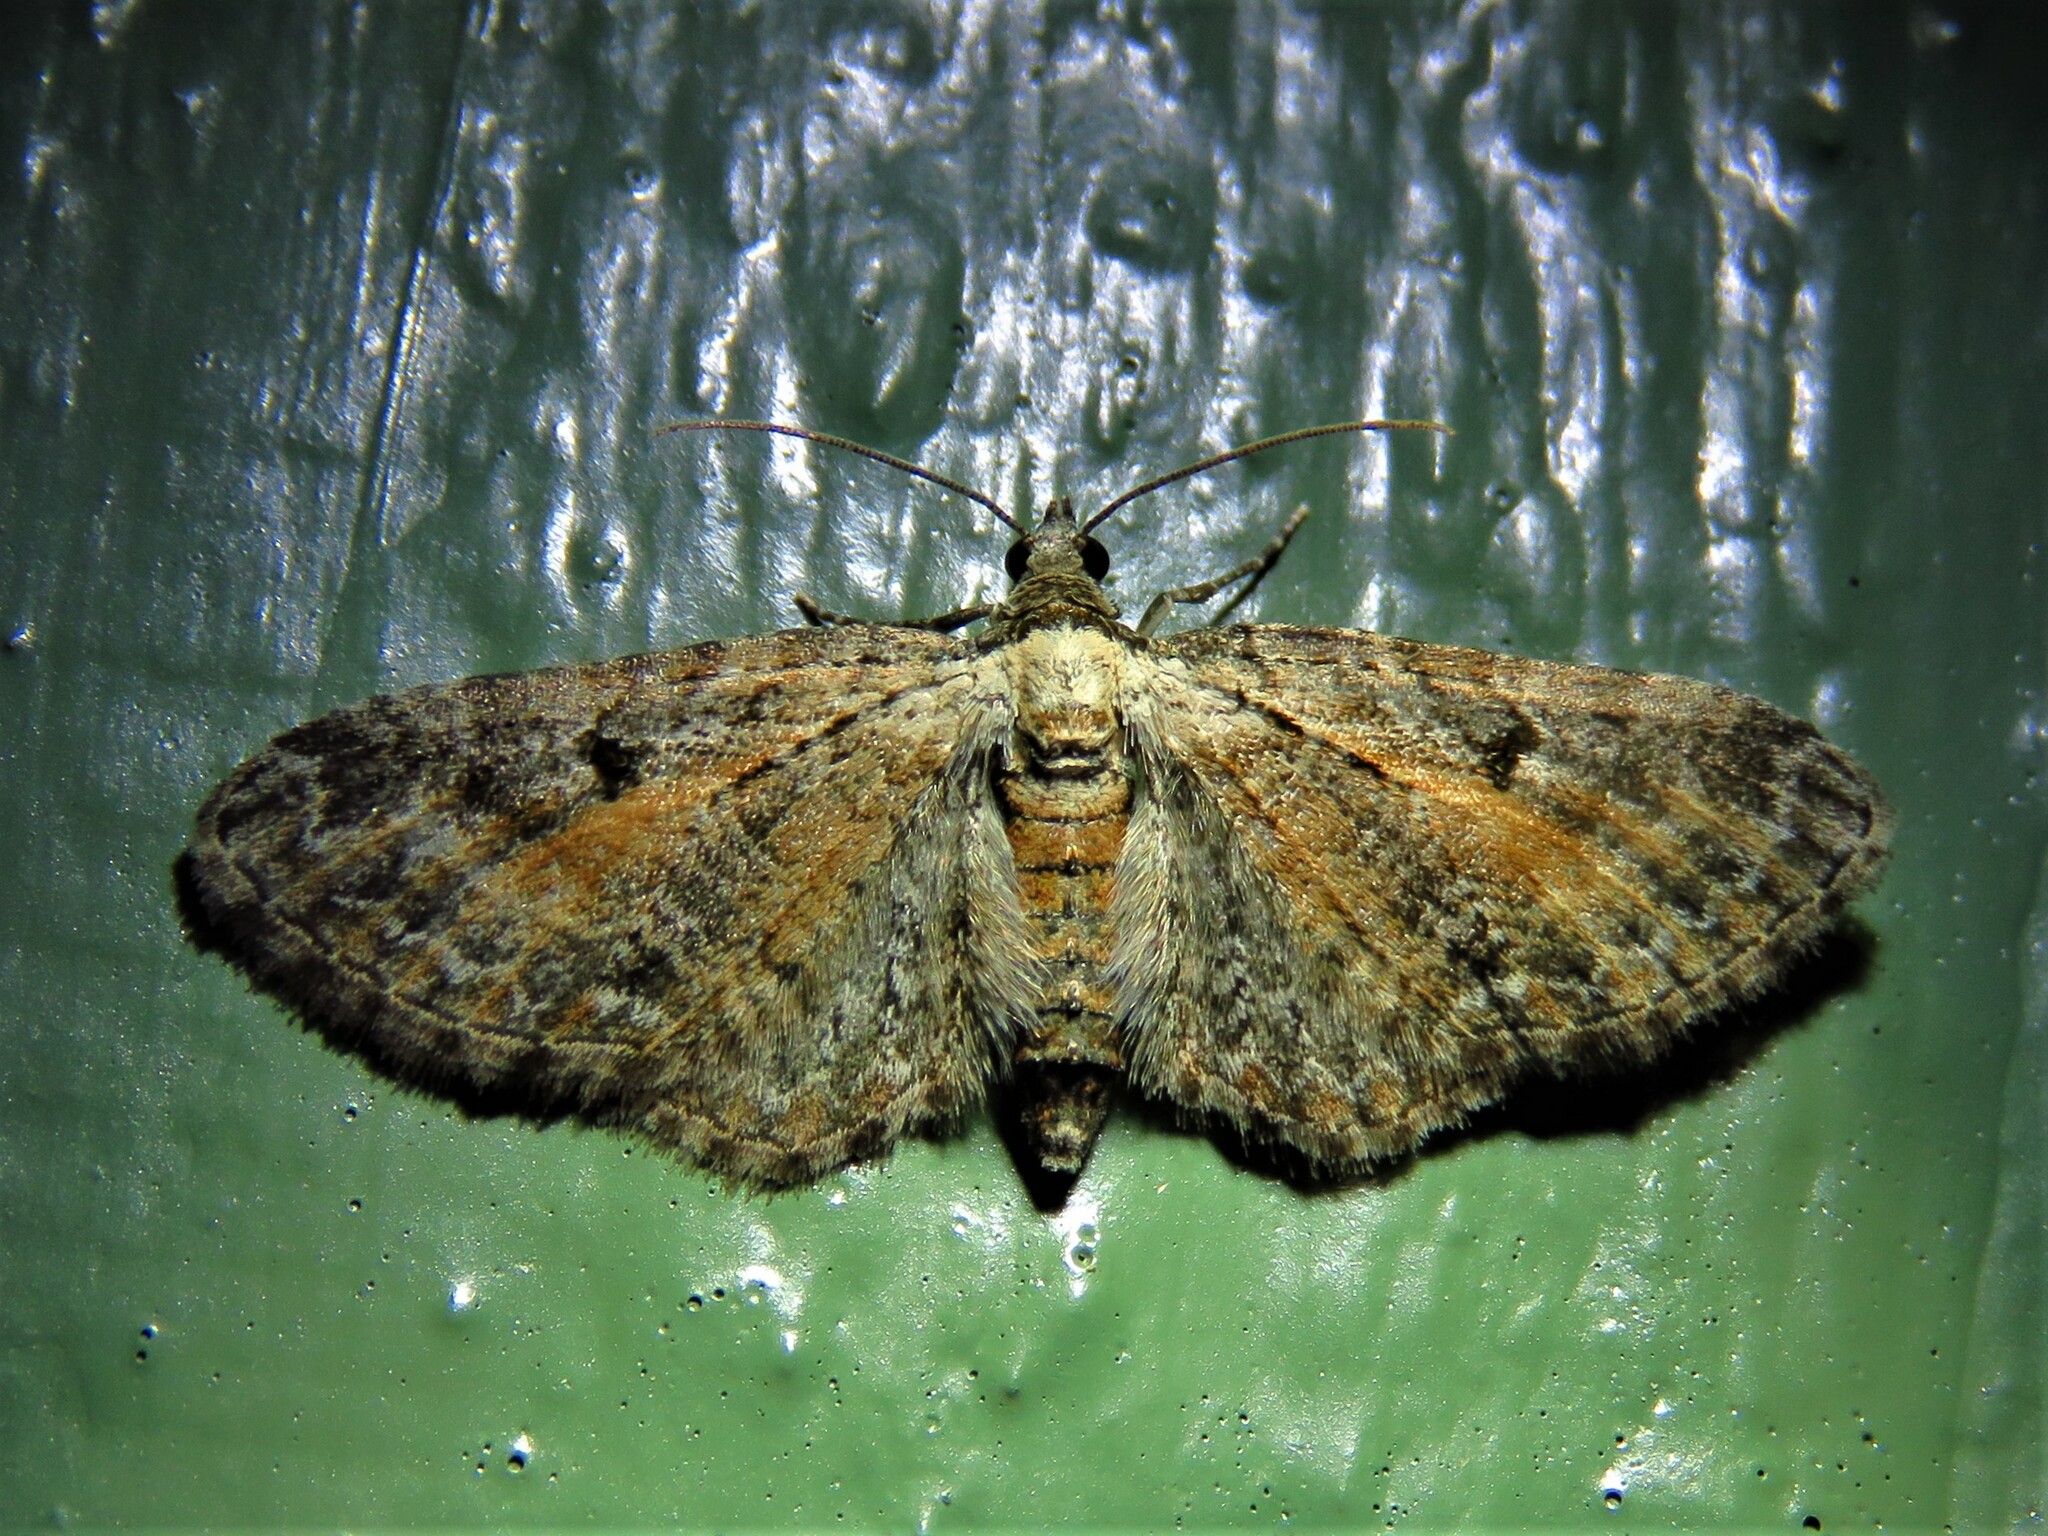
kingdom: Animalia
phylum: Arthropoda
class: Insecta
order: Lepidoptera
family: Geometridae
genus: Eupithecia
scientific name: Eupithecia icterata
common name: Tawny speckled pug
